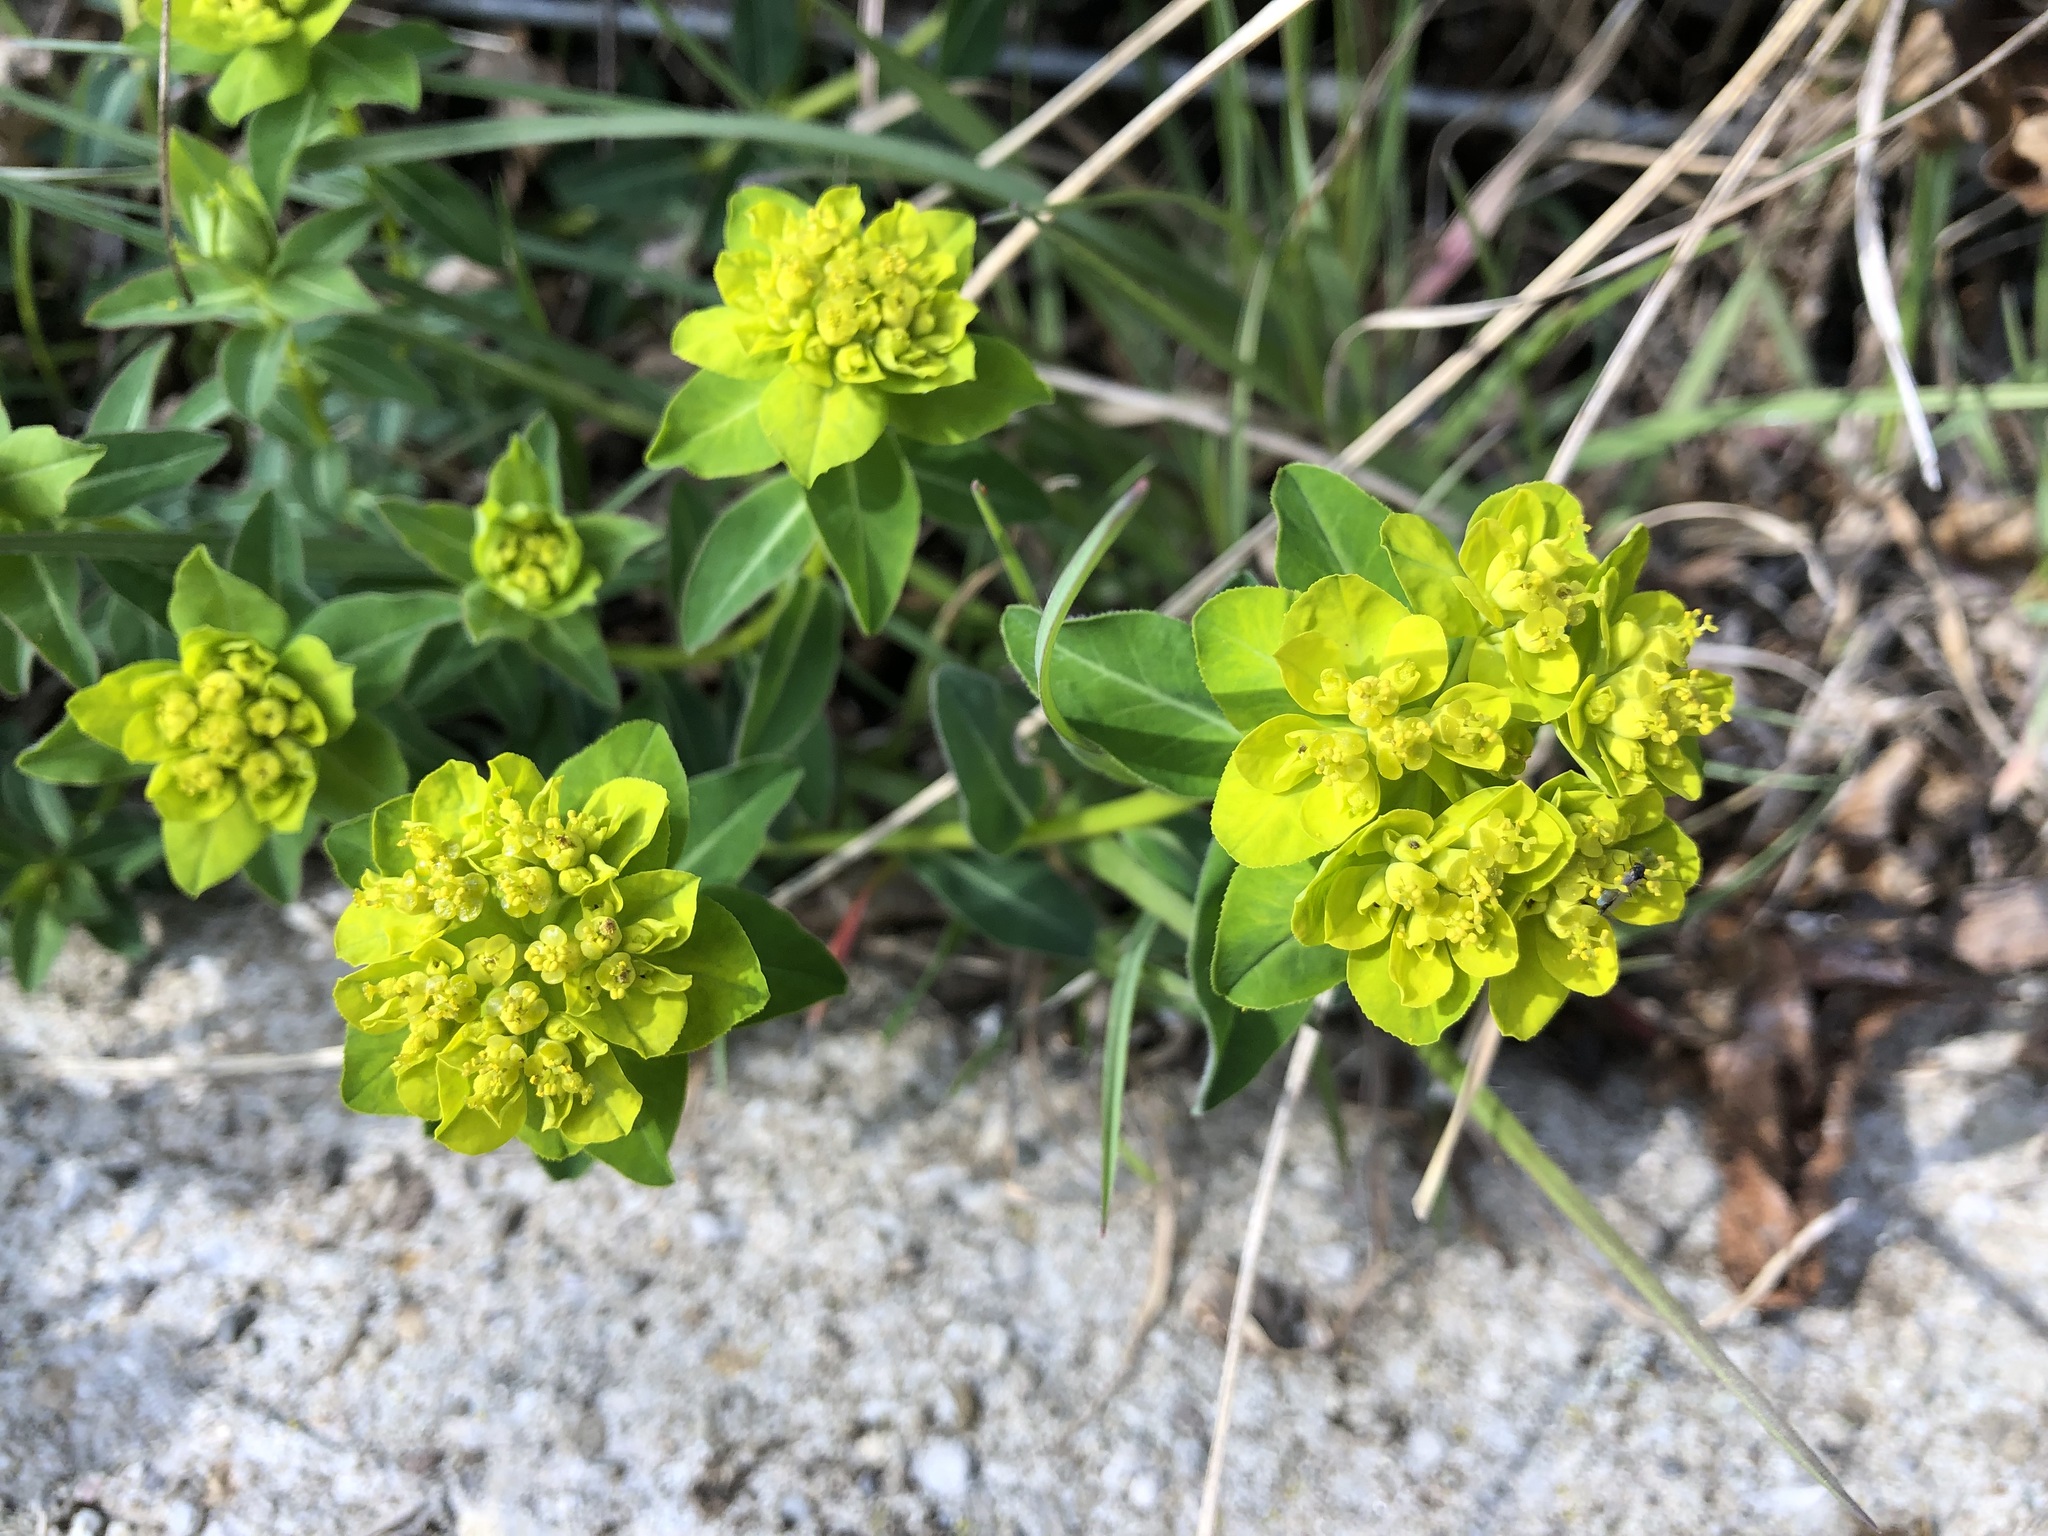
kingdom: Plantae
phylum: Tracheophyta
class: Magnoliopsida
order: Malpighiales
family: Euphorbiaceae
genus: Euphorbia
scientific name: Euphorbia verrucosa
